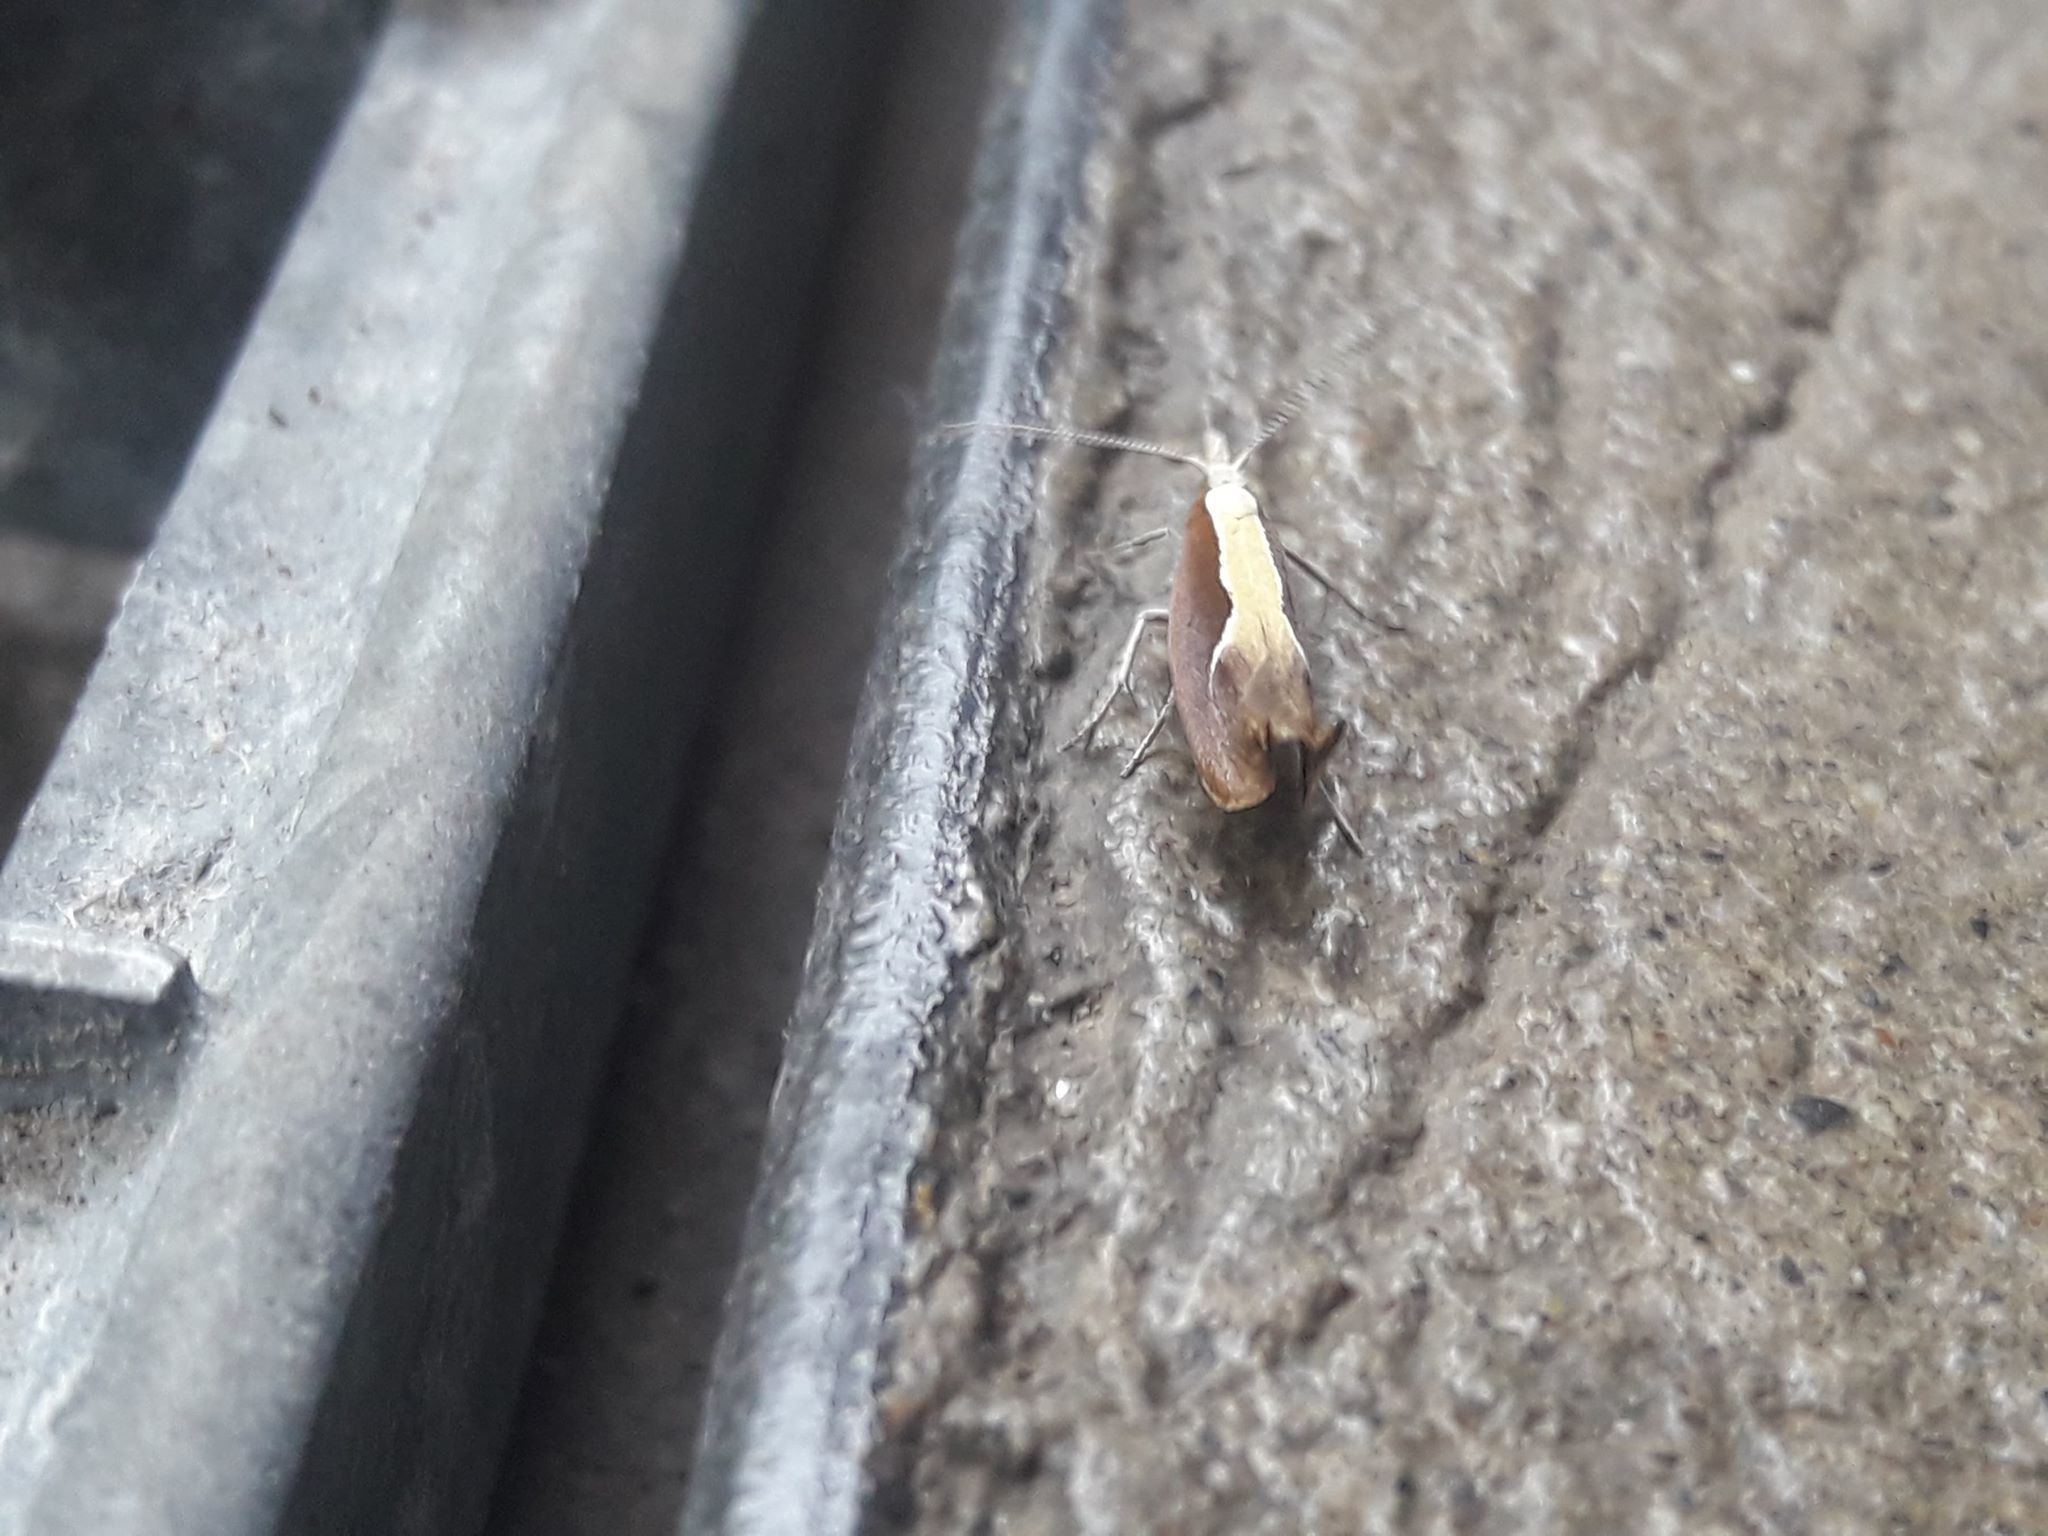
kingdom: Animalia
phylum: Arthropoda
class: Insecta
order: Lepidoptera
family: Ypsolophidae
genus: Ypsolopha
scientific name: Ypsolopha dentella
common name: Honeysuckle moth
